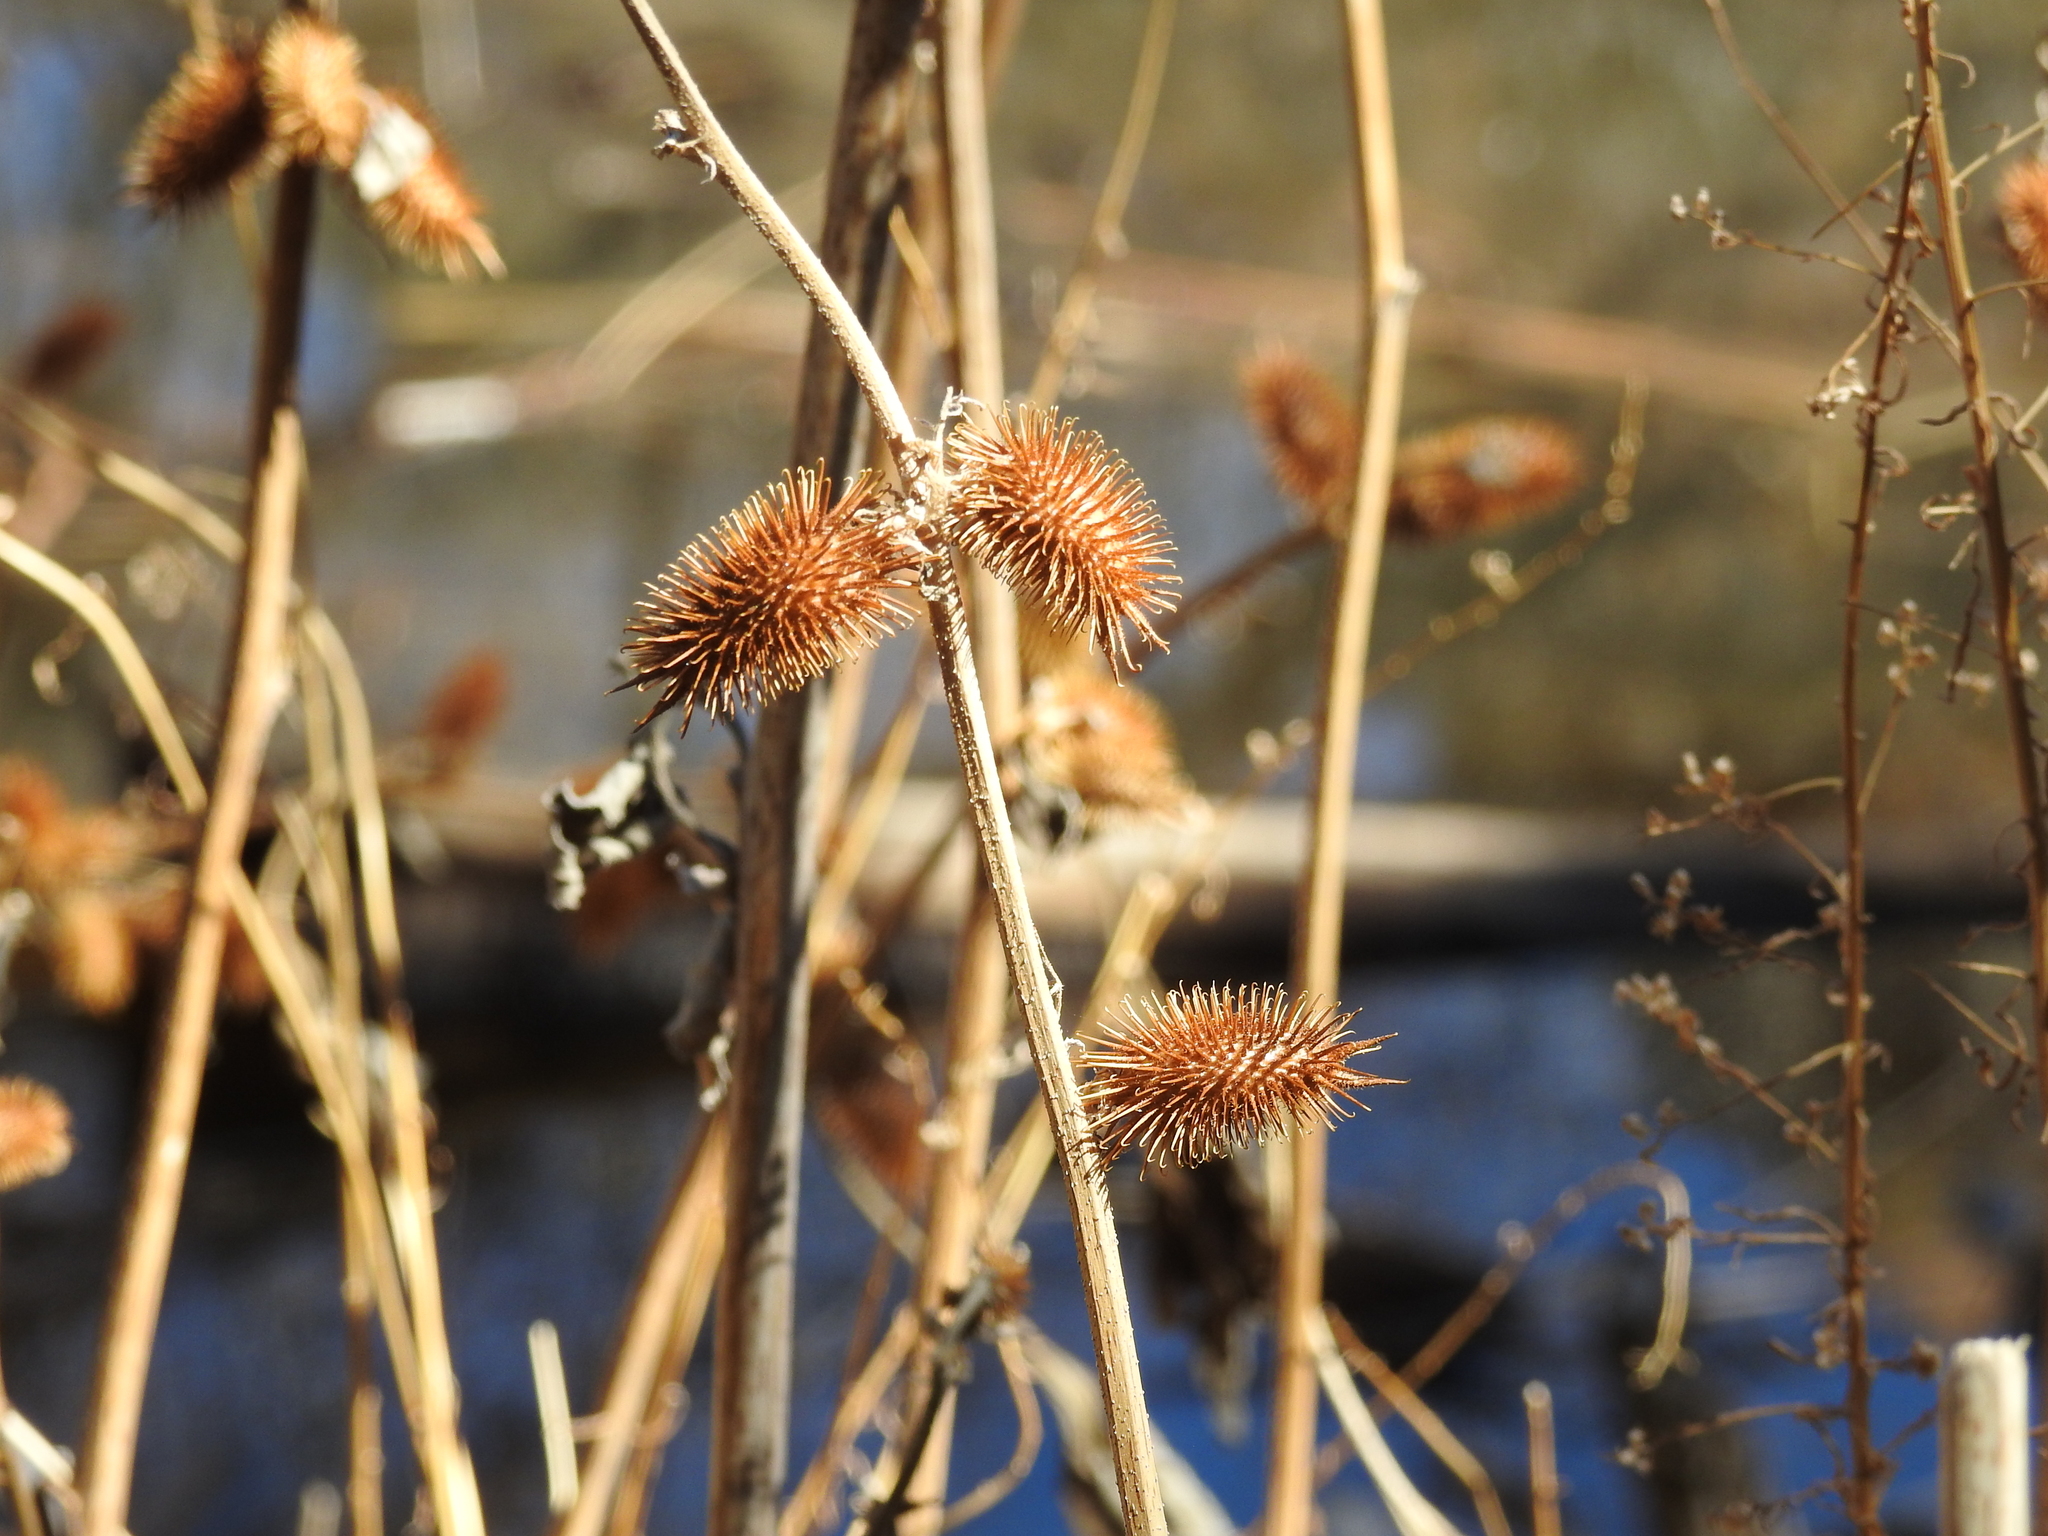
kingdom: Plantae
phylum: Tracheophyta
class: Magnoliopsida
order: Asterales
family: Asteraceae
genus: Xanthium
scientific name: Xanthium strumarium
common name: Rough cocklebur
